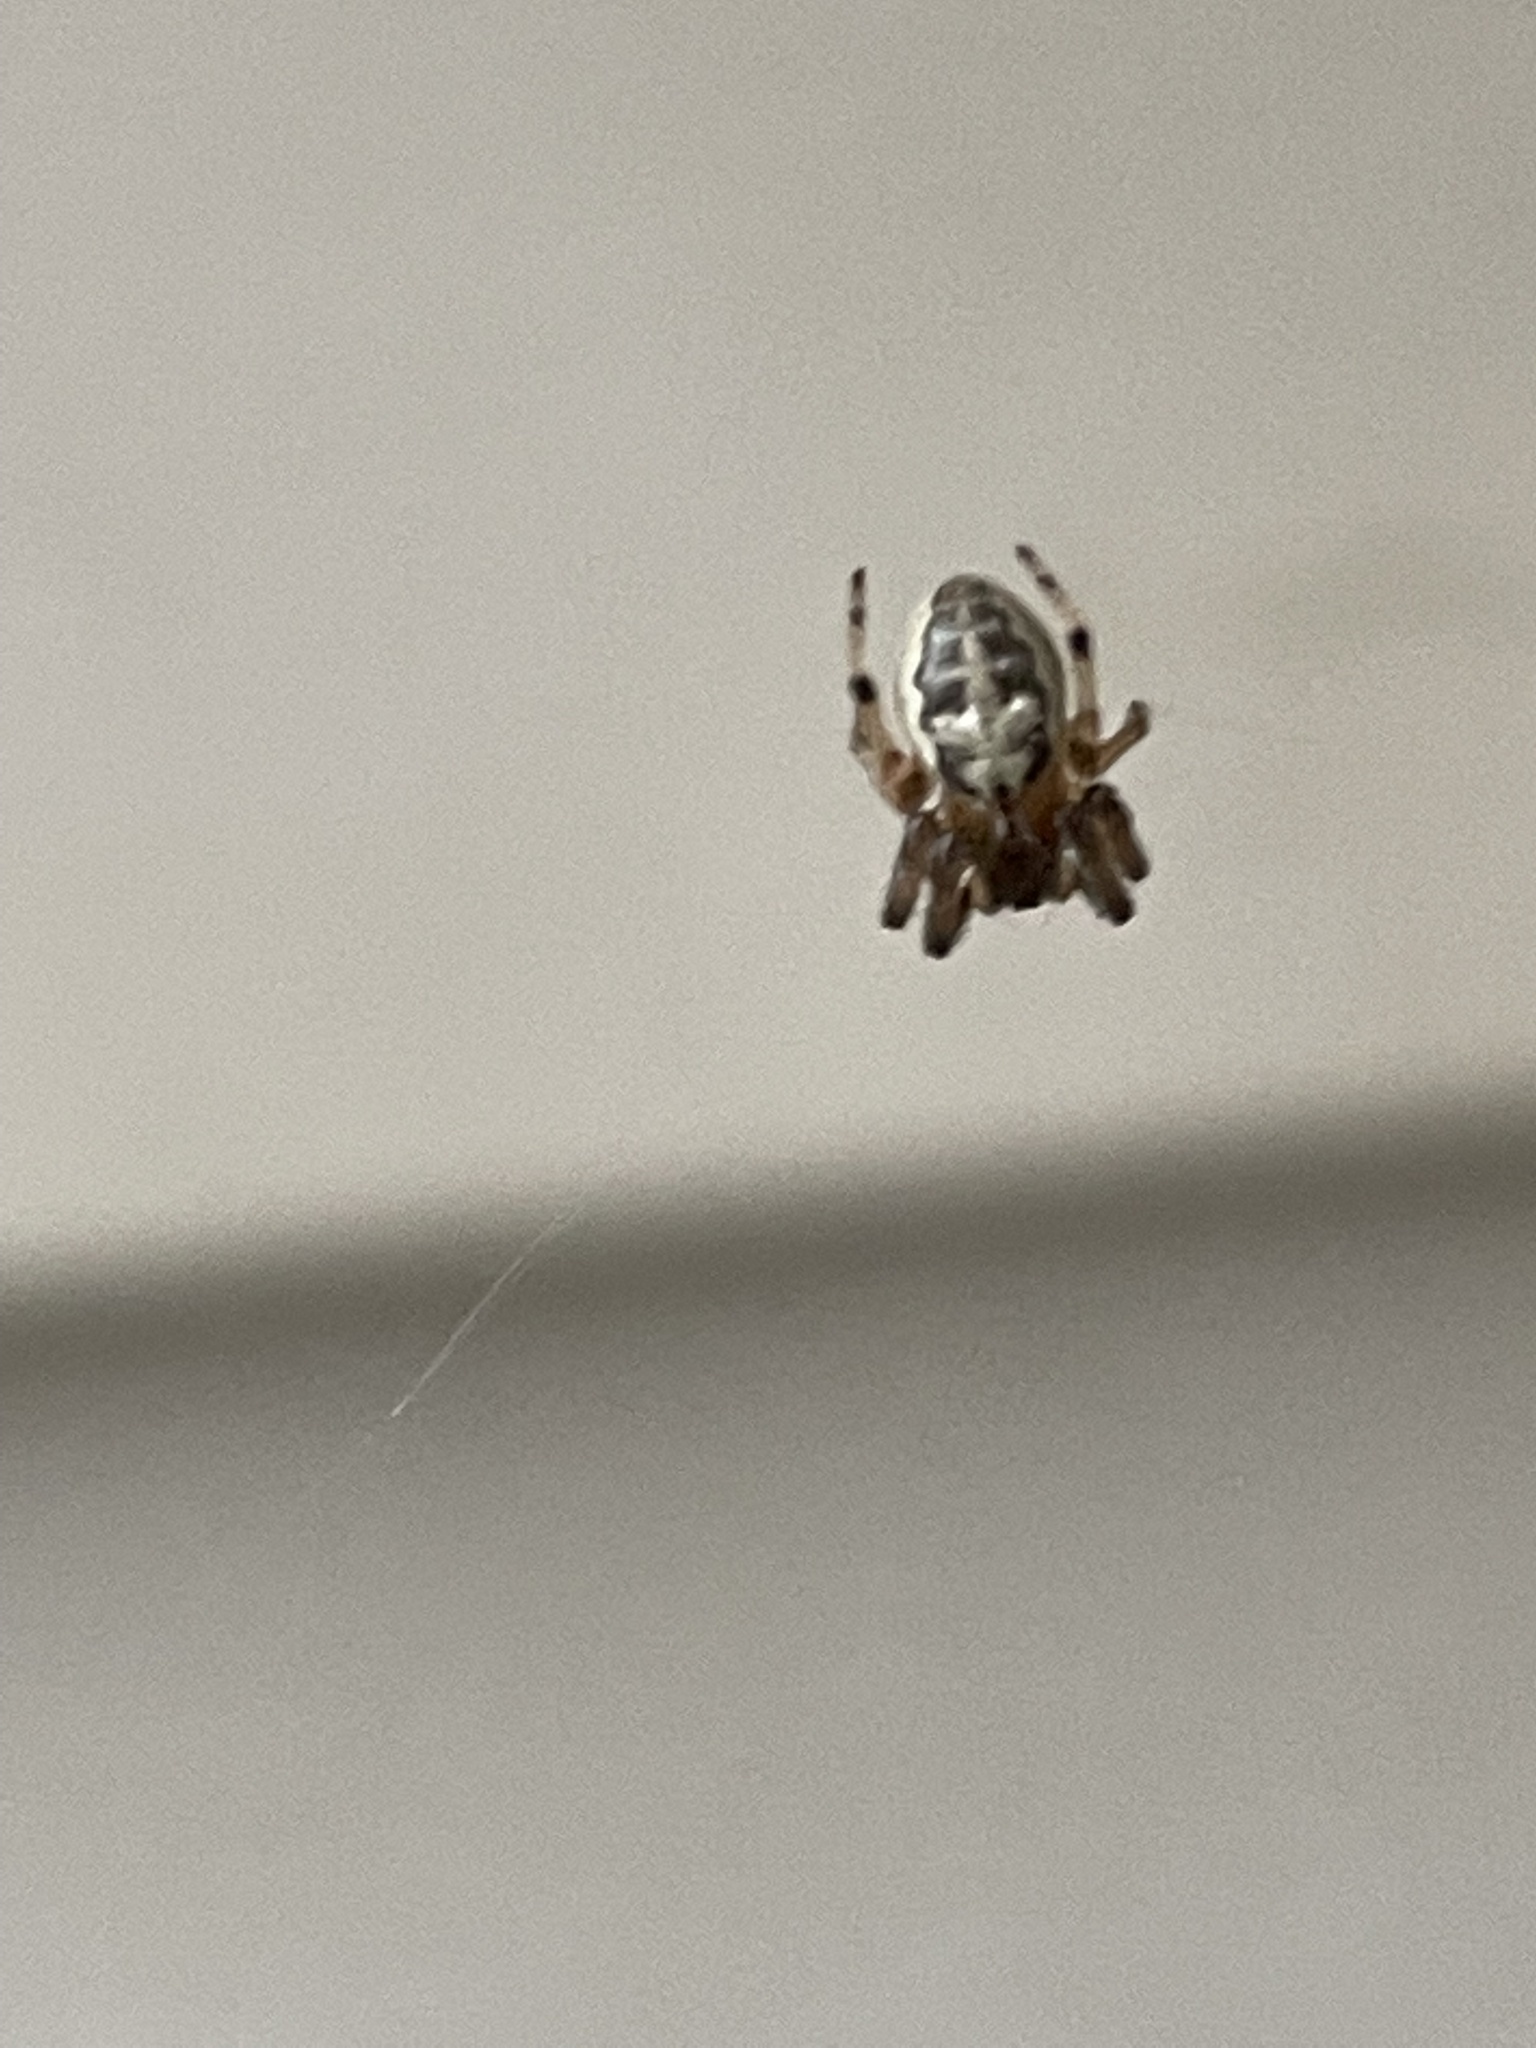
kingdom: Animalia
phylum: Arthropoda
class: Arachnida
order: Araneae
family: Araneidae
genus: Larinioides
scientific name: Larinioides cornutus
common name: Furrow orbweaver
